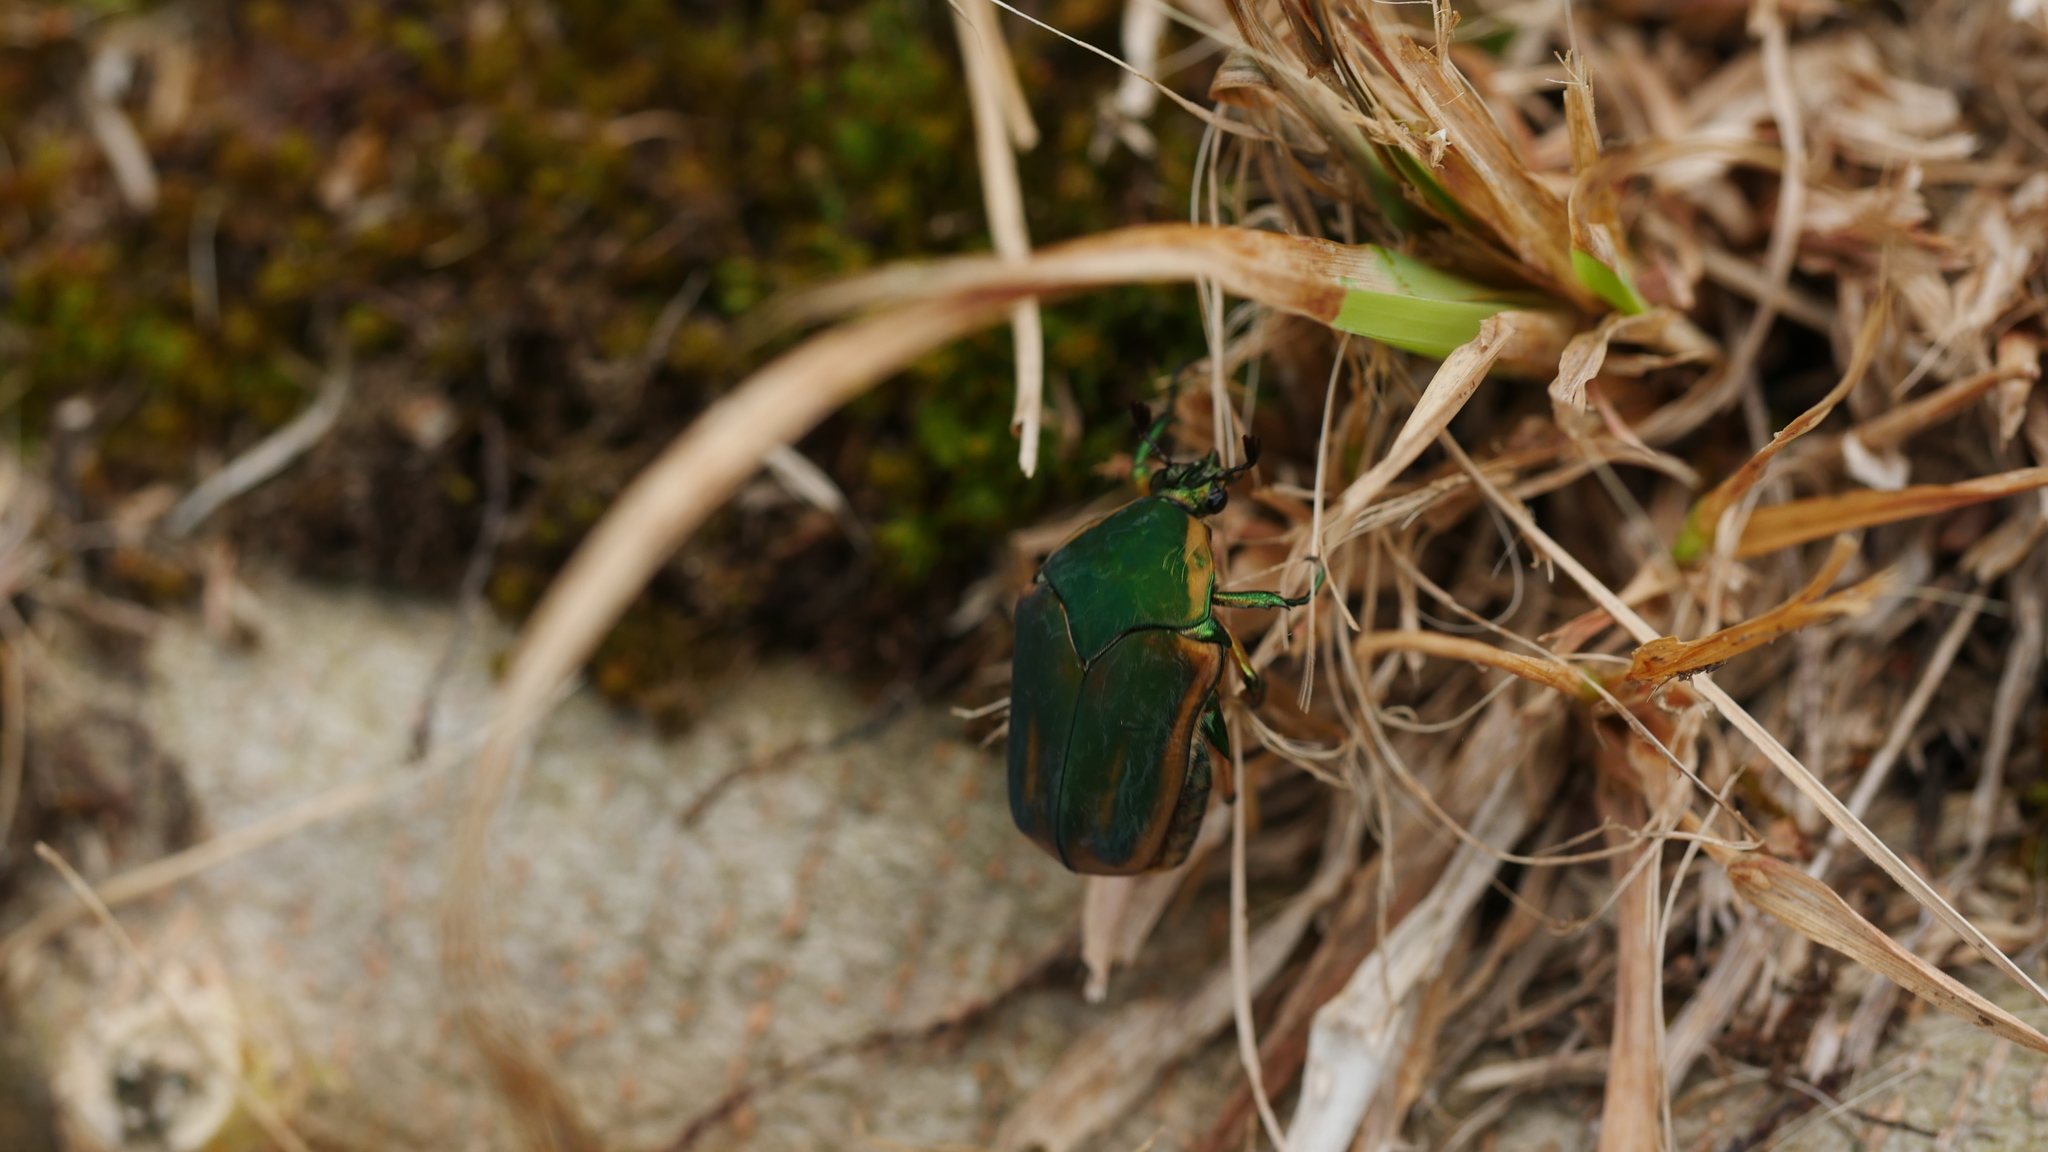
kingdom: Animalia
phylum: Arthropoda
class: Insecta
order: Coleoptera
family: Scarabaeidae
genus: Cotinis
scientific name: Cotinis nitida
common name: Common green june beetle
